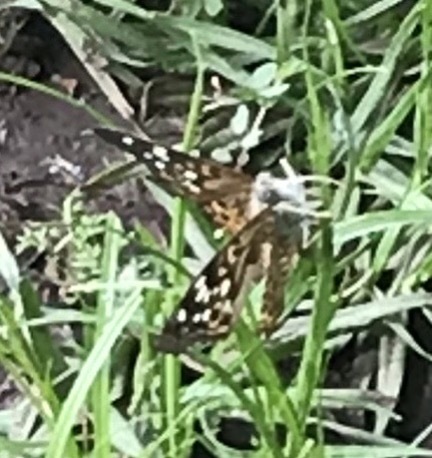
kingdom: Animalia
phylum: Arthropoda
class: Insecta
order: Lepidoptera
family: Nymphalidae
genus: Asterocampa
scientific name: Asterocampa celtis
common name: Hackberry emperor
